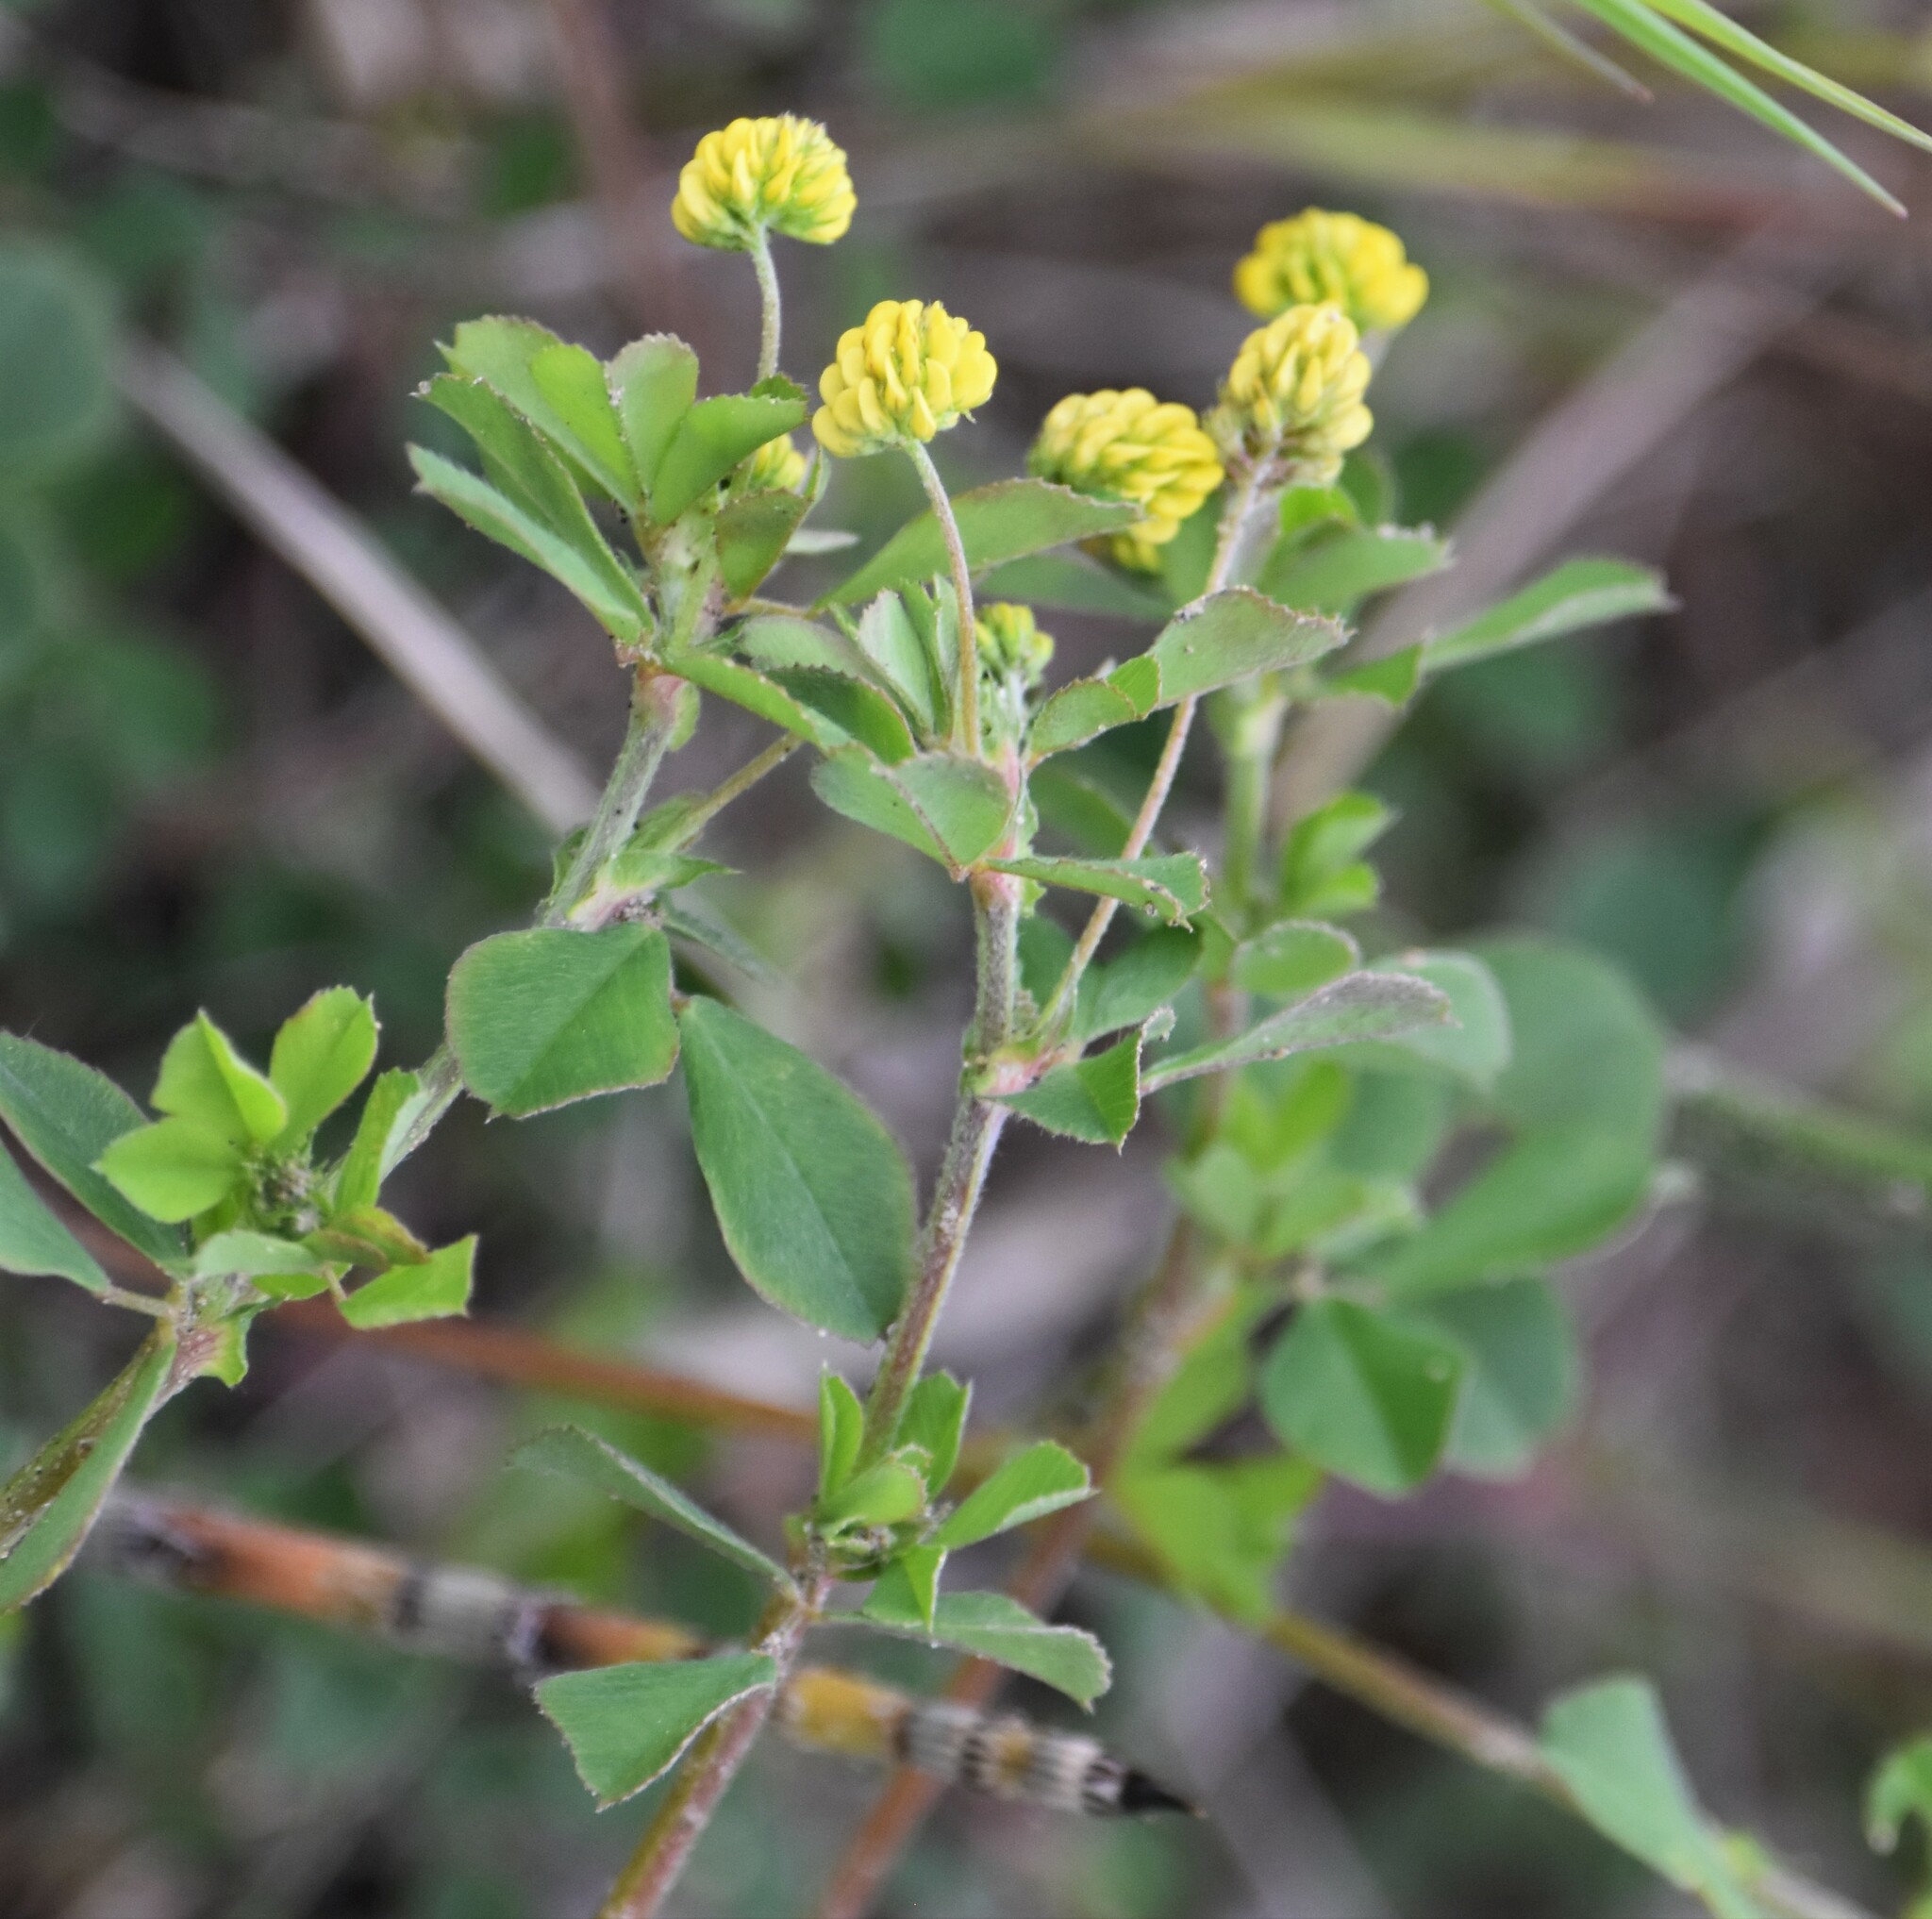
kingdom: Plantae
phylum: Tracheophyta
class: Magnoliopsida
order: Fabales
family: Fabaceae
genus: Medicago
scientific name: Medicago lupulina
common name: Black medick
